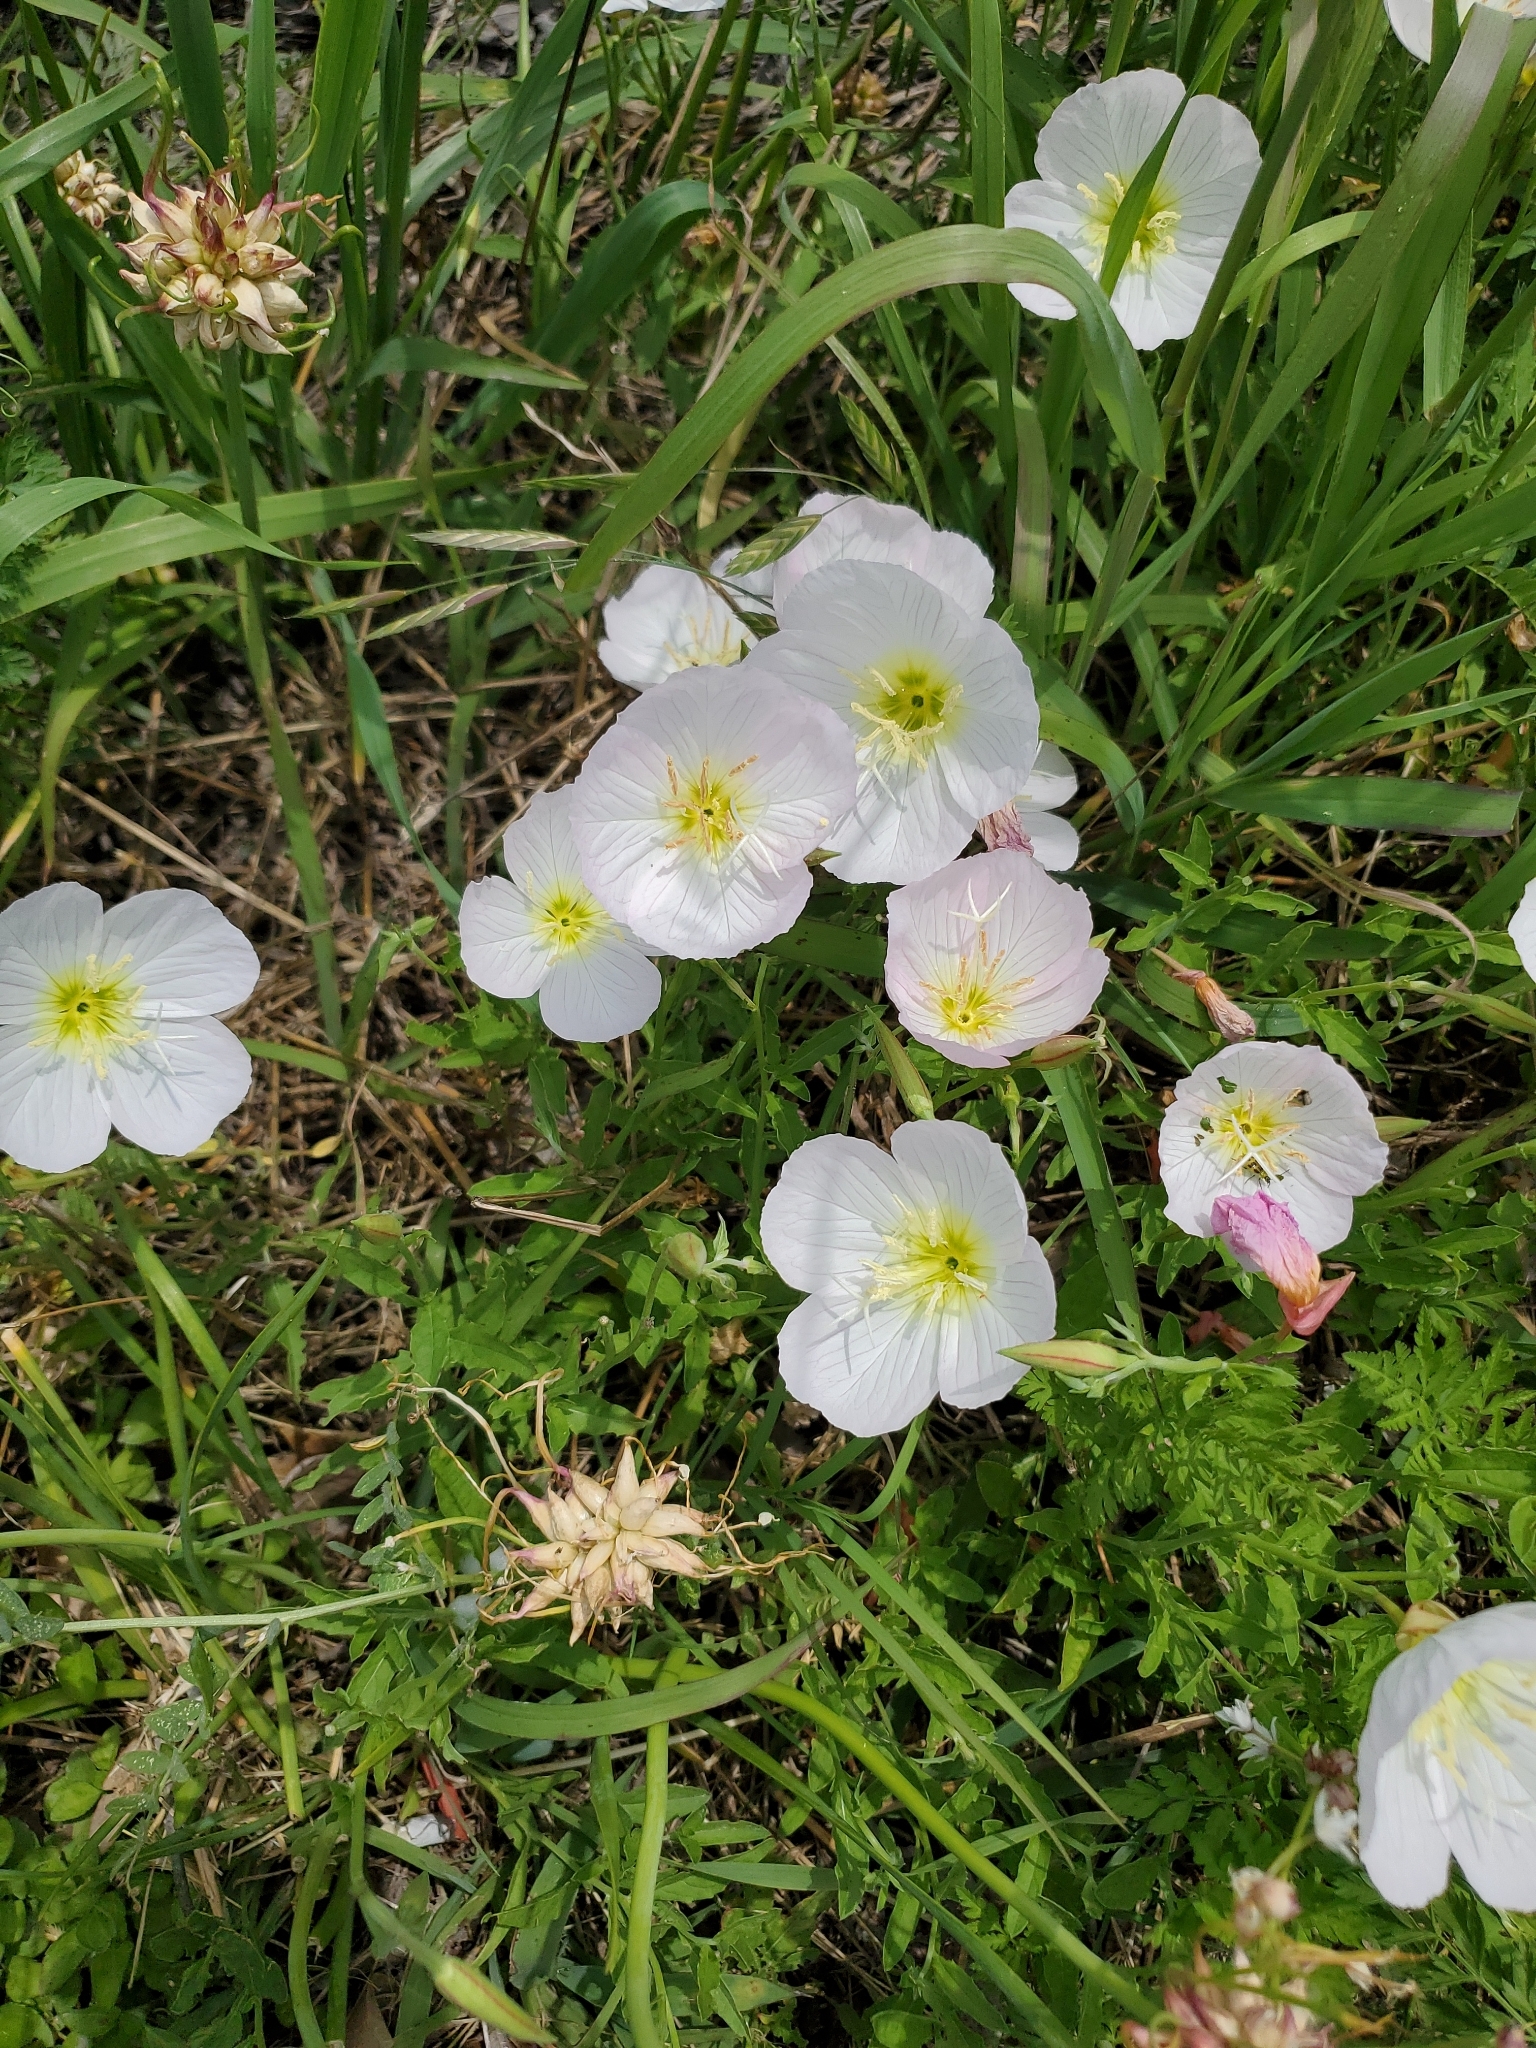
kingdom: Plantae
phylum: Tracheophyta
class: Magnoliopsida
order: Myrtales
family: Onagraceae
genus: Oenothera
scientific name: Oenothera speciosa
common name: White evening-primrose
